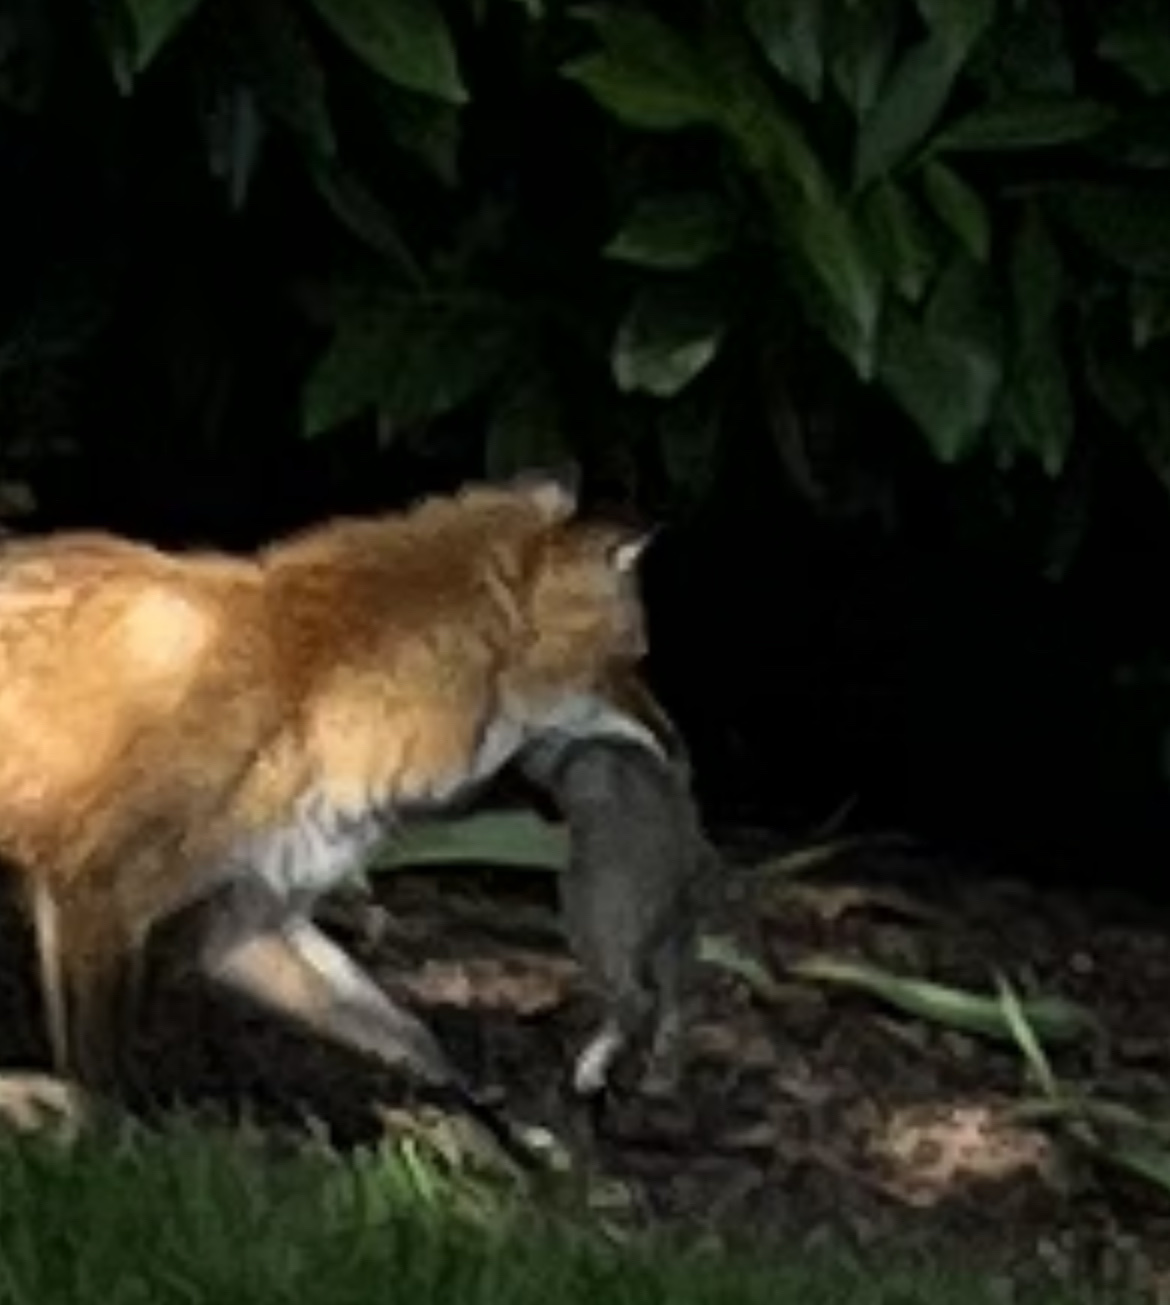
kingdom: Animalia
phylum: Chordata
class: Mammalia
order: Carnivora
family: Canidae
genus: Vulpes
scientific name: Vulpes vulpes
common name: Red fox
